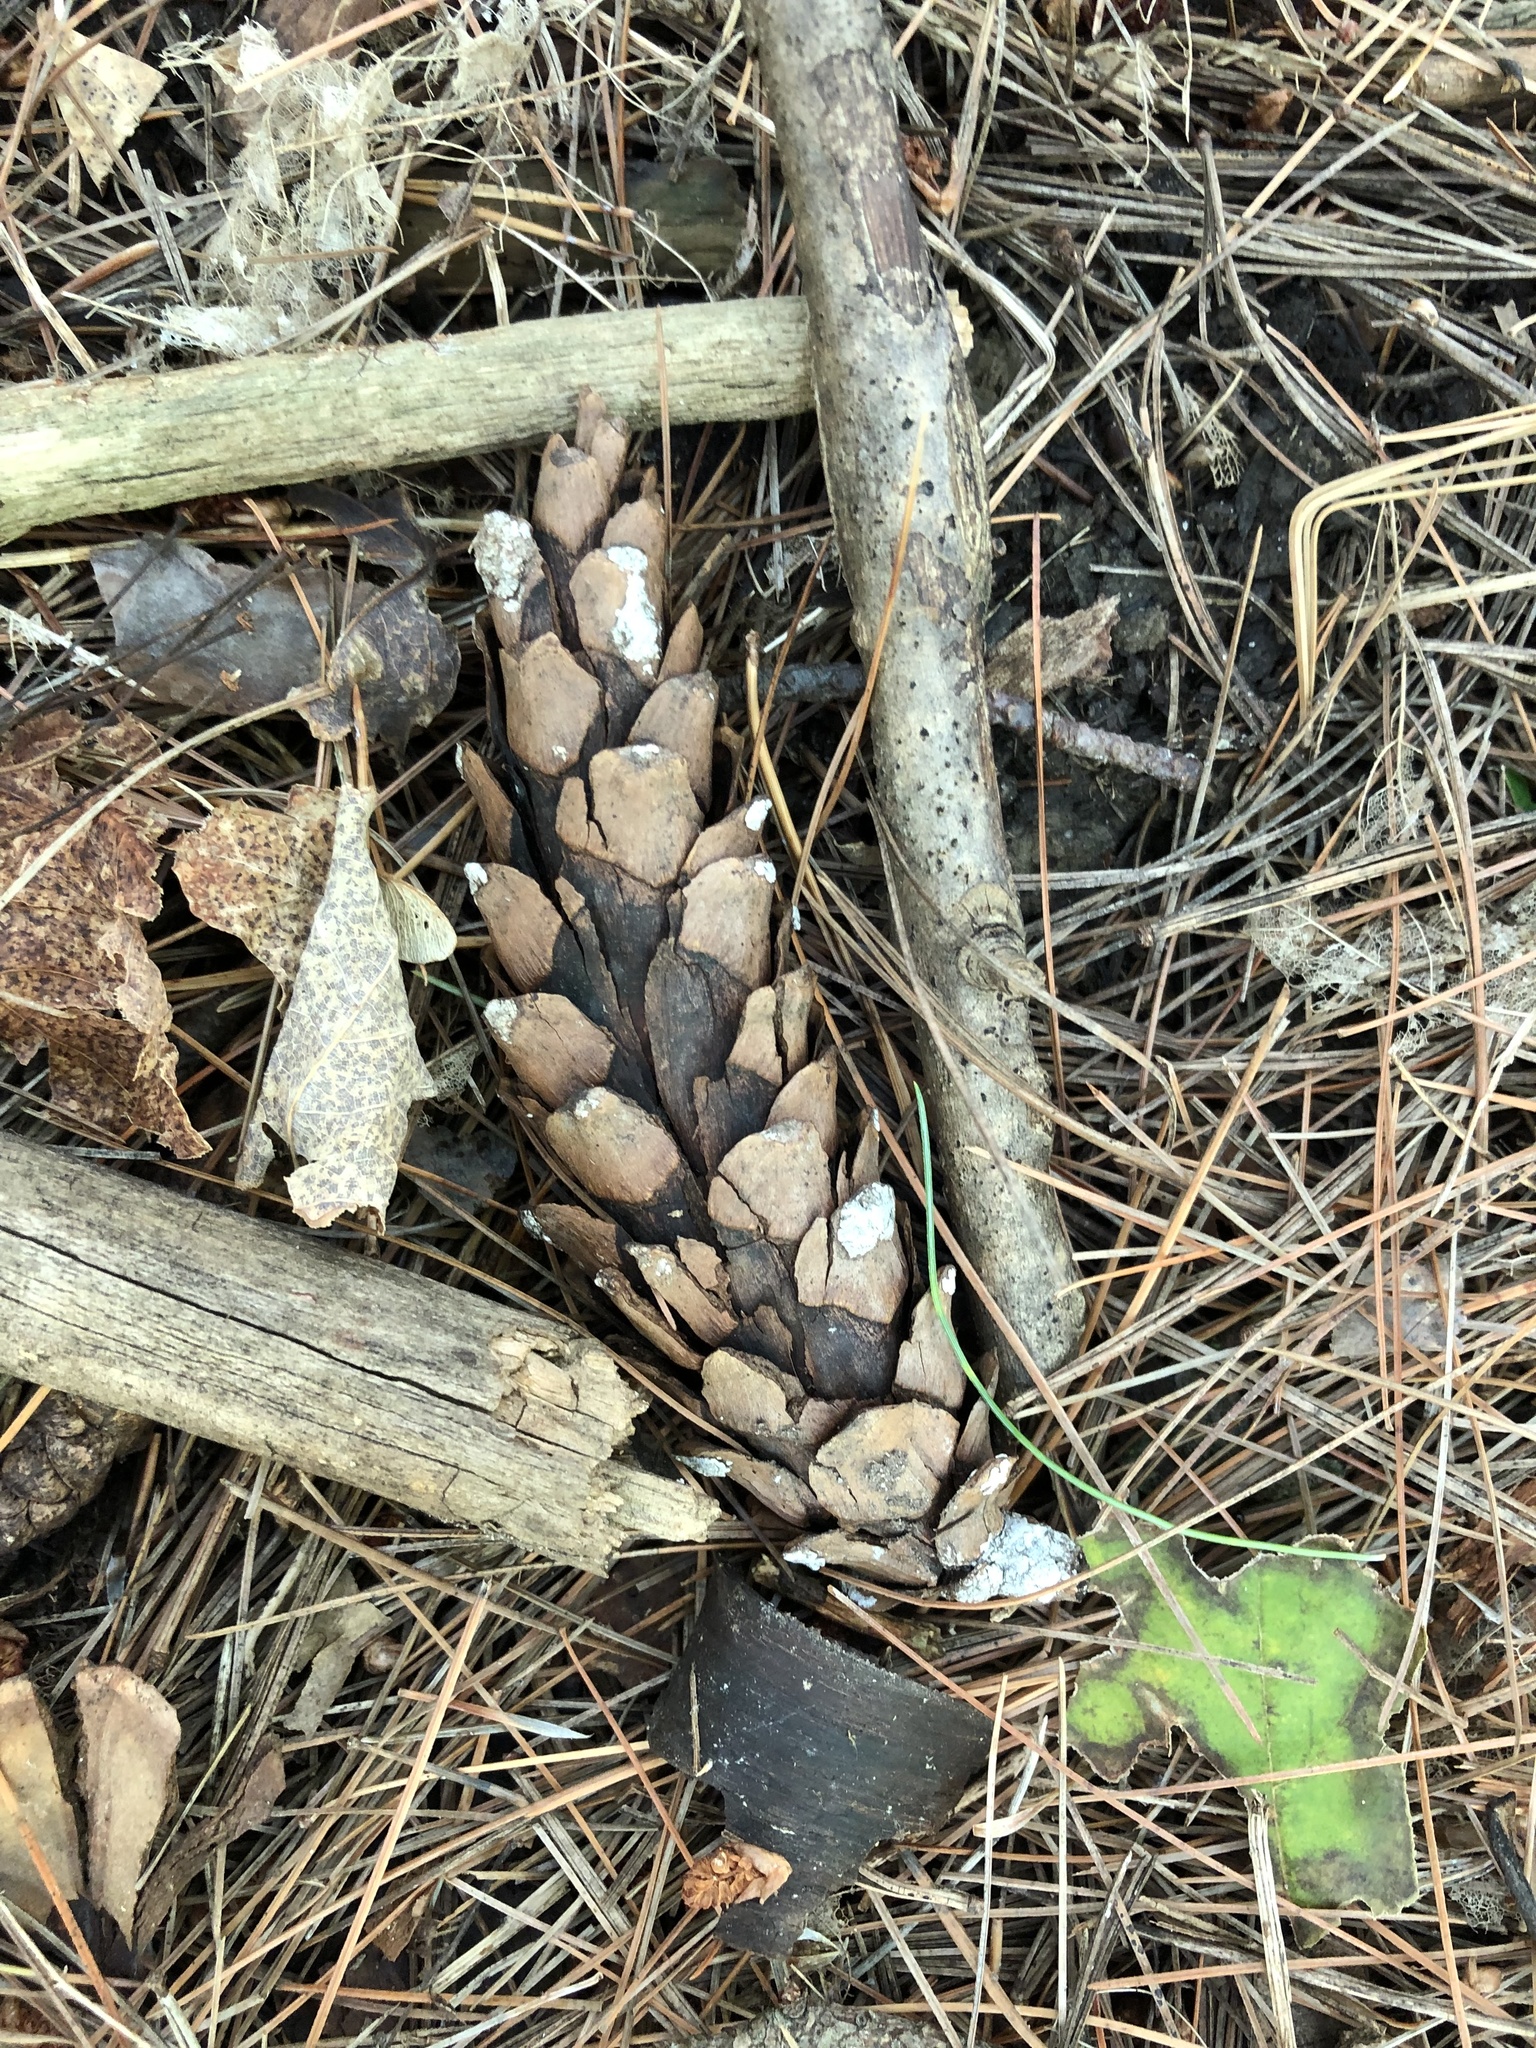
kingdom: Plantae
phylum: Tracheophyta
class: Pinopsida
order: Pinales
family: Pinaceae
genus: Pinus
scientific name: Pinus strobus
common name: Weymouth pine
